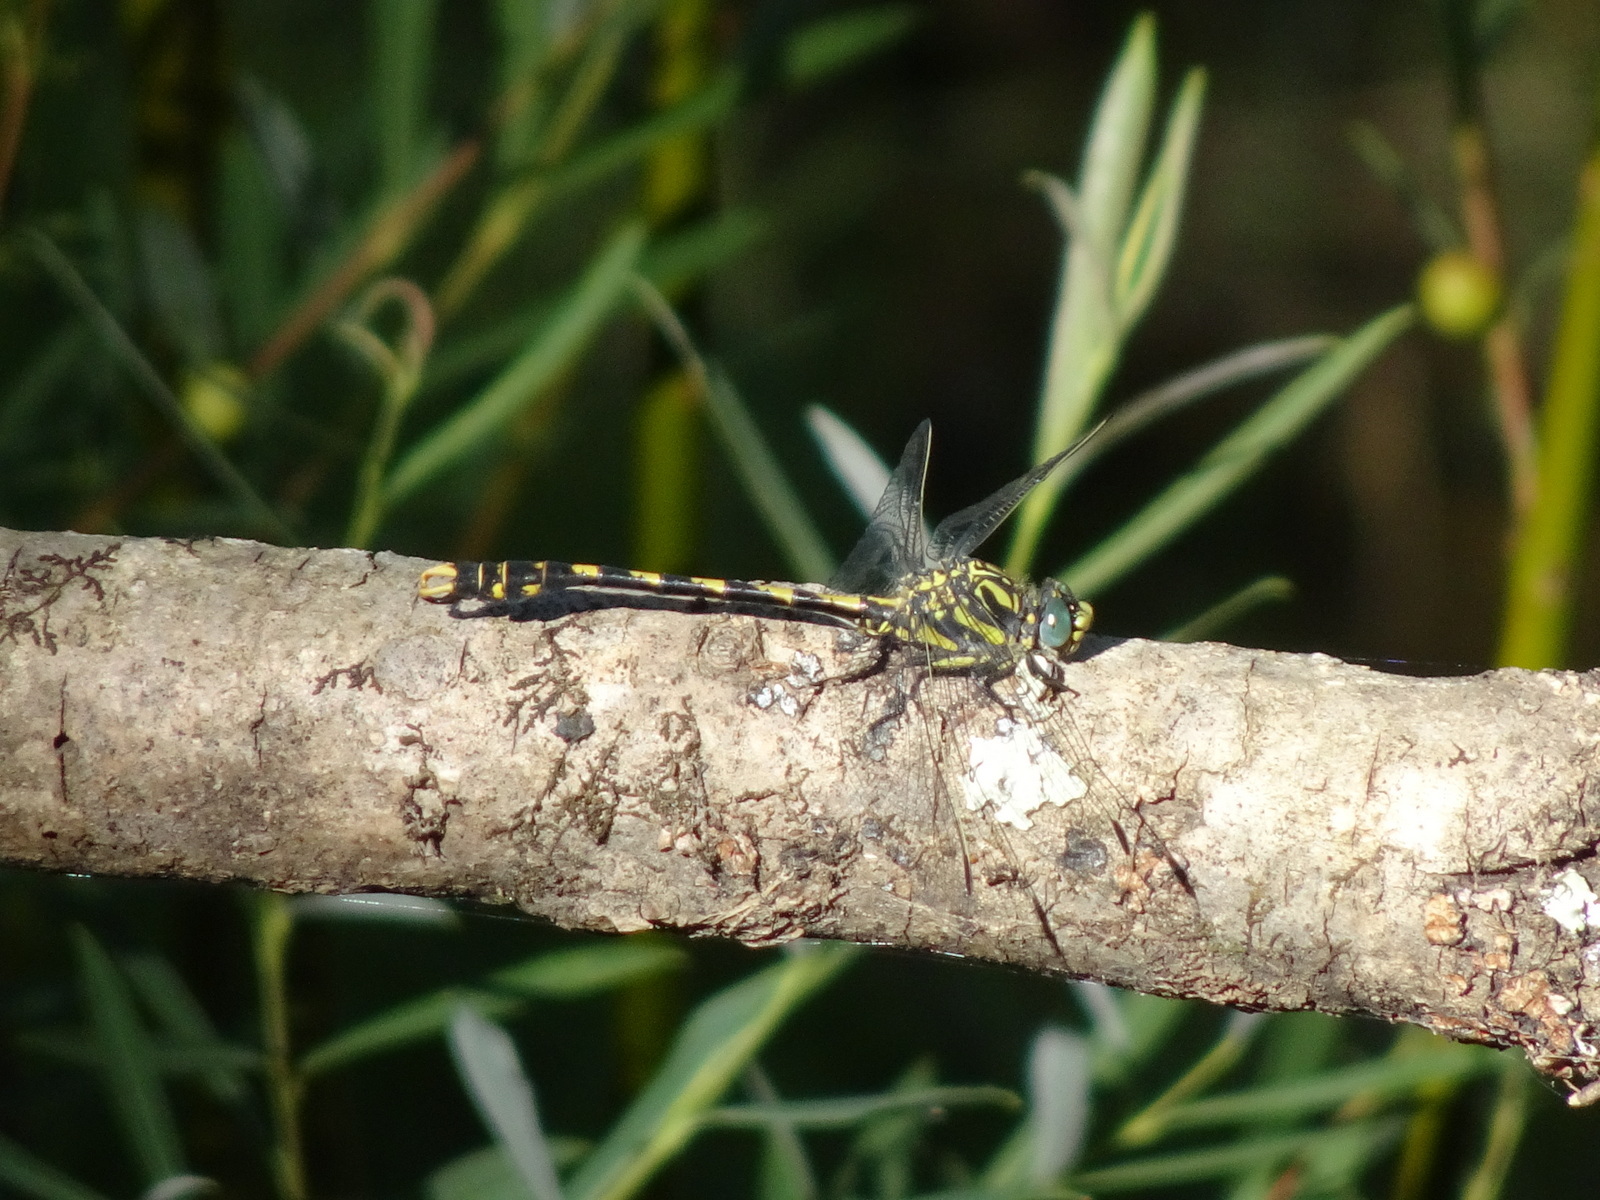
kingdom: Animalia
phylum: Arthropoda
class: Insecta
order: Odonata
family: Gomphidae
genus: Onychogomphus
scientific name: Onychogomphus uncatus
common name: Large pincertail
